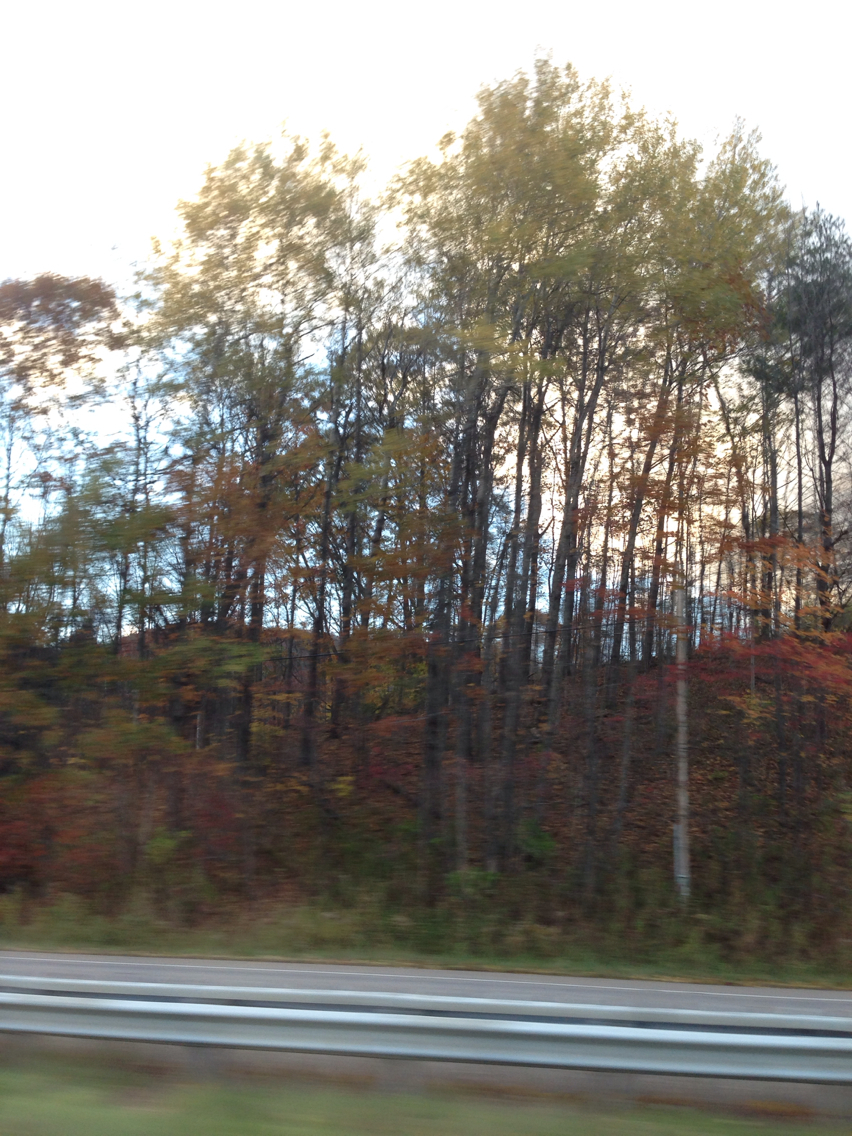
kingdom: Plantae
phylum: Tracheophyta
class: Magnoliopsida
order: Malpighiales
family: Salicaceae
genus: Populus
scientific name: Populus tremuloides
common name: Quaking aspen
